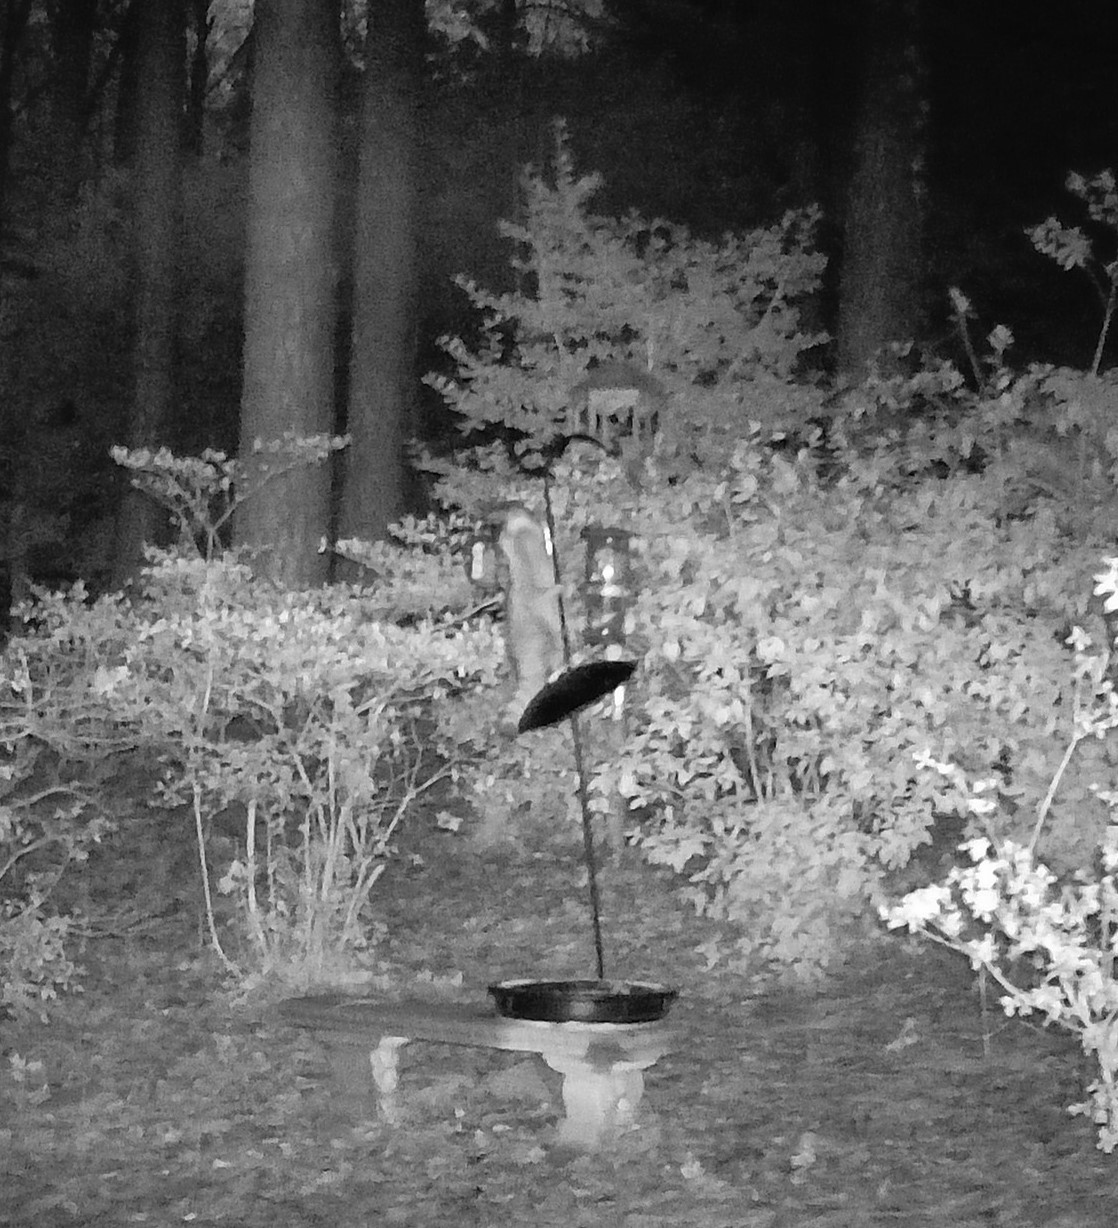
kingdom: Animalia
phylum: Chordata
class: Mammalia
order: Carnivora
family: Procyonidae
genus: Procyon
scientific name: Procyon lotor
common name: Raccoon
